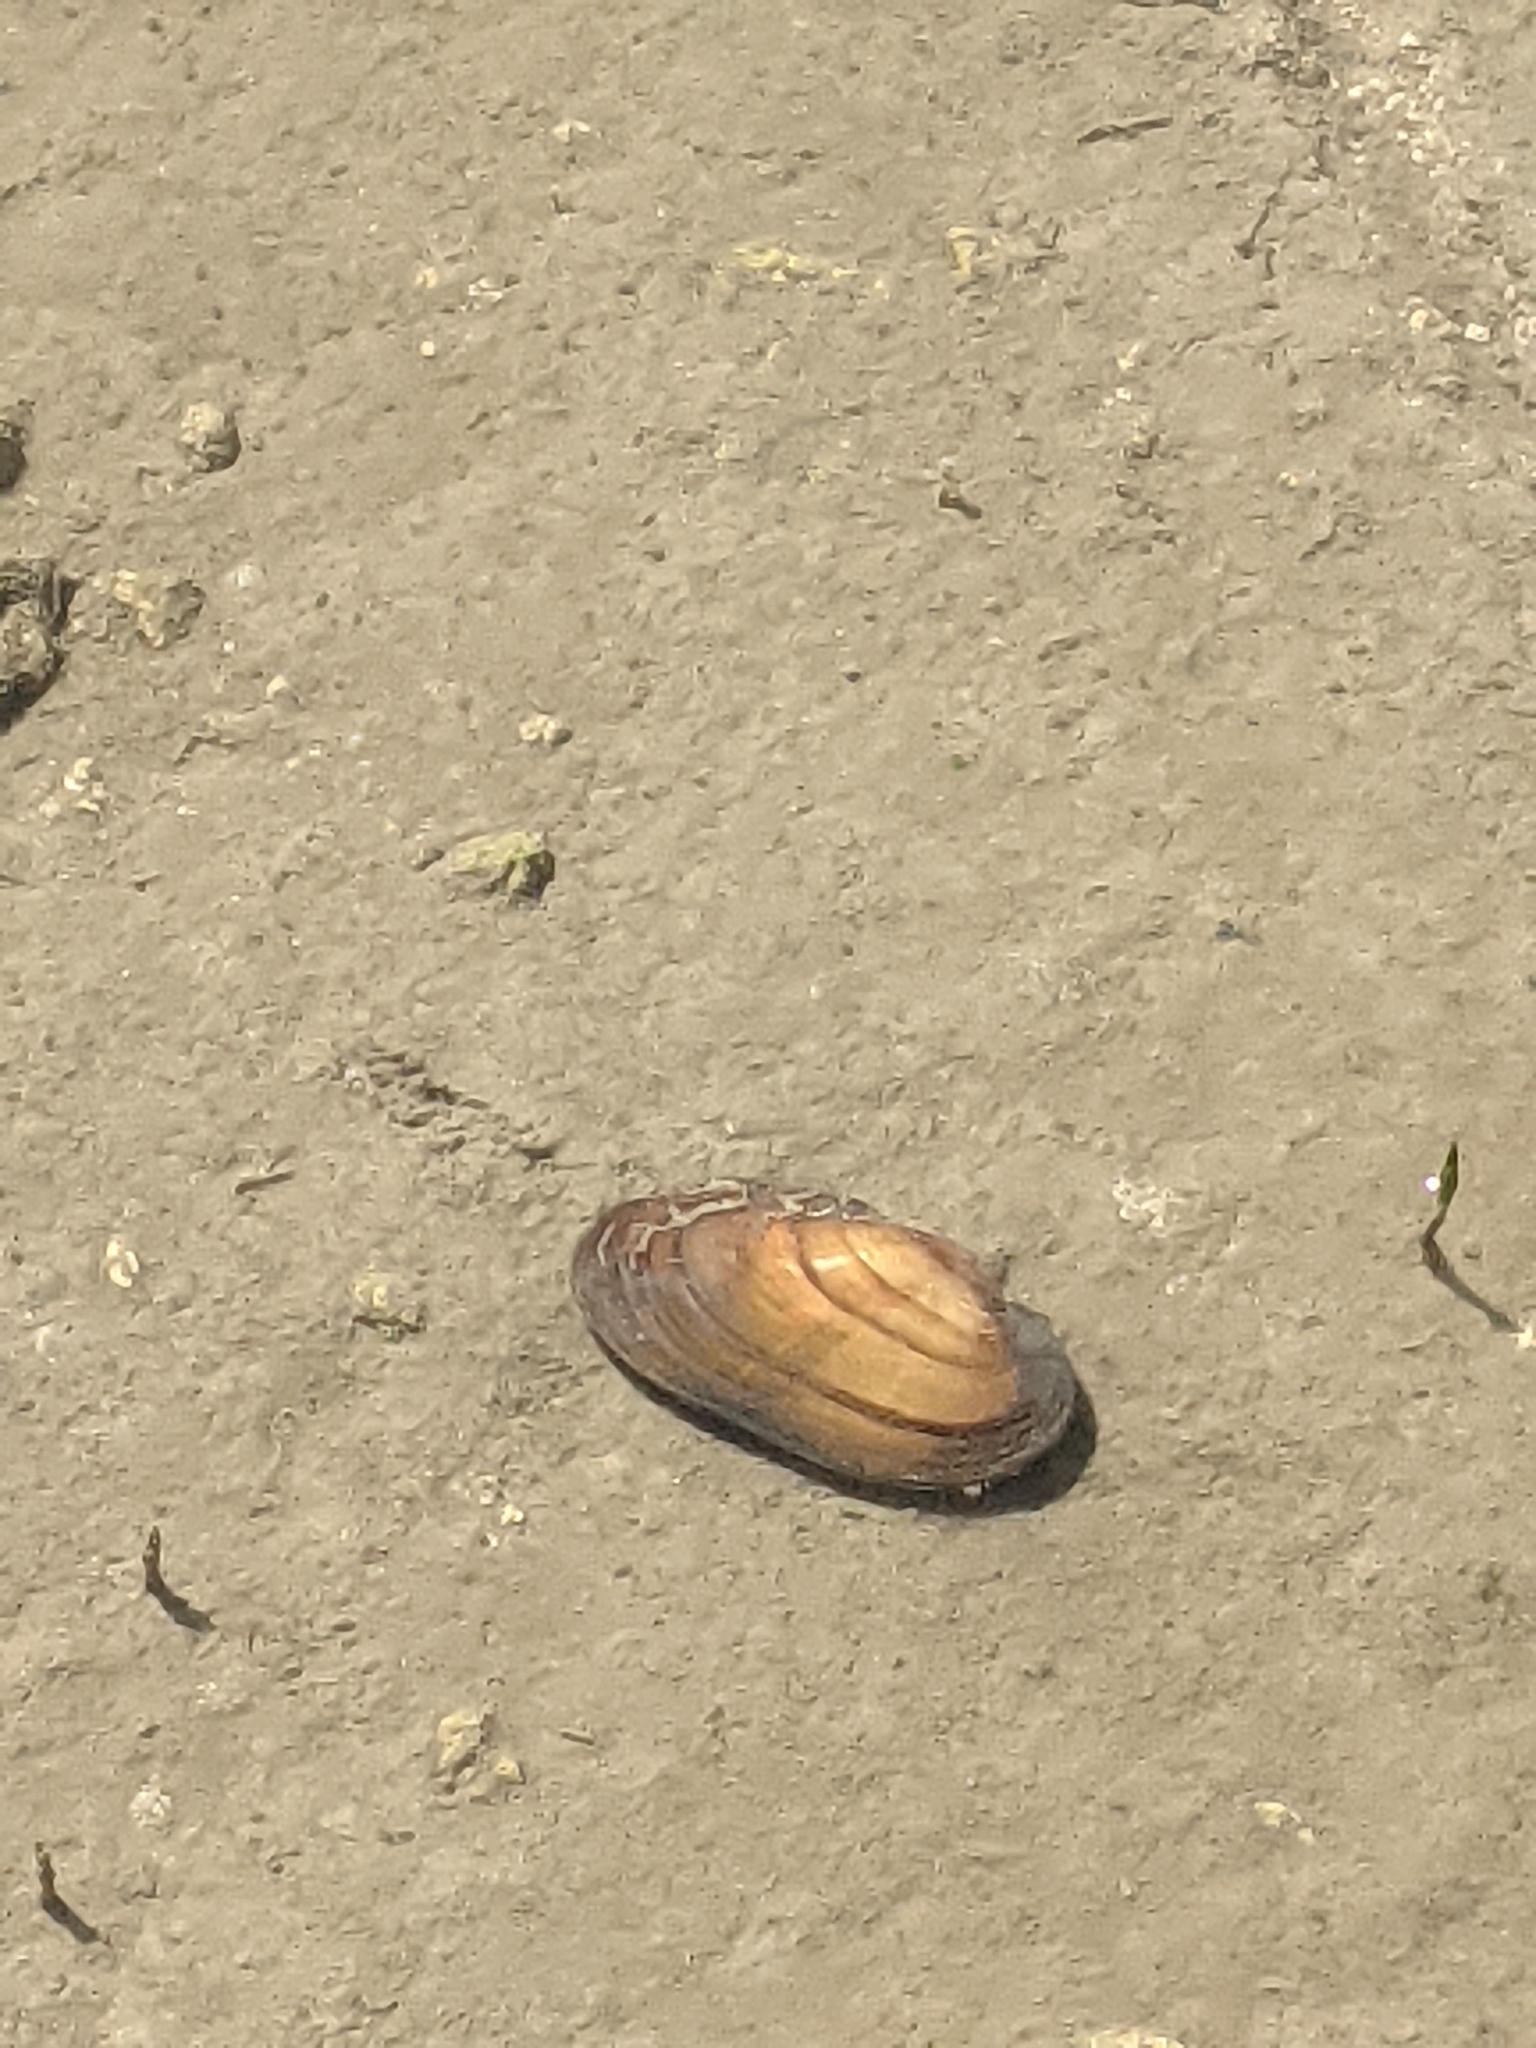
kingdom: Animalia
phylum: Mollusca
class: Bivalvia
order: Unionida
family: Unionidae
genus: Unio
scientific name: Unio crassus
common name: Thick shelled river mussel
